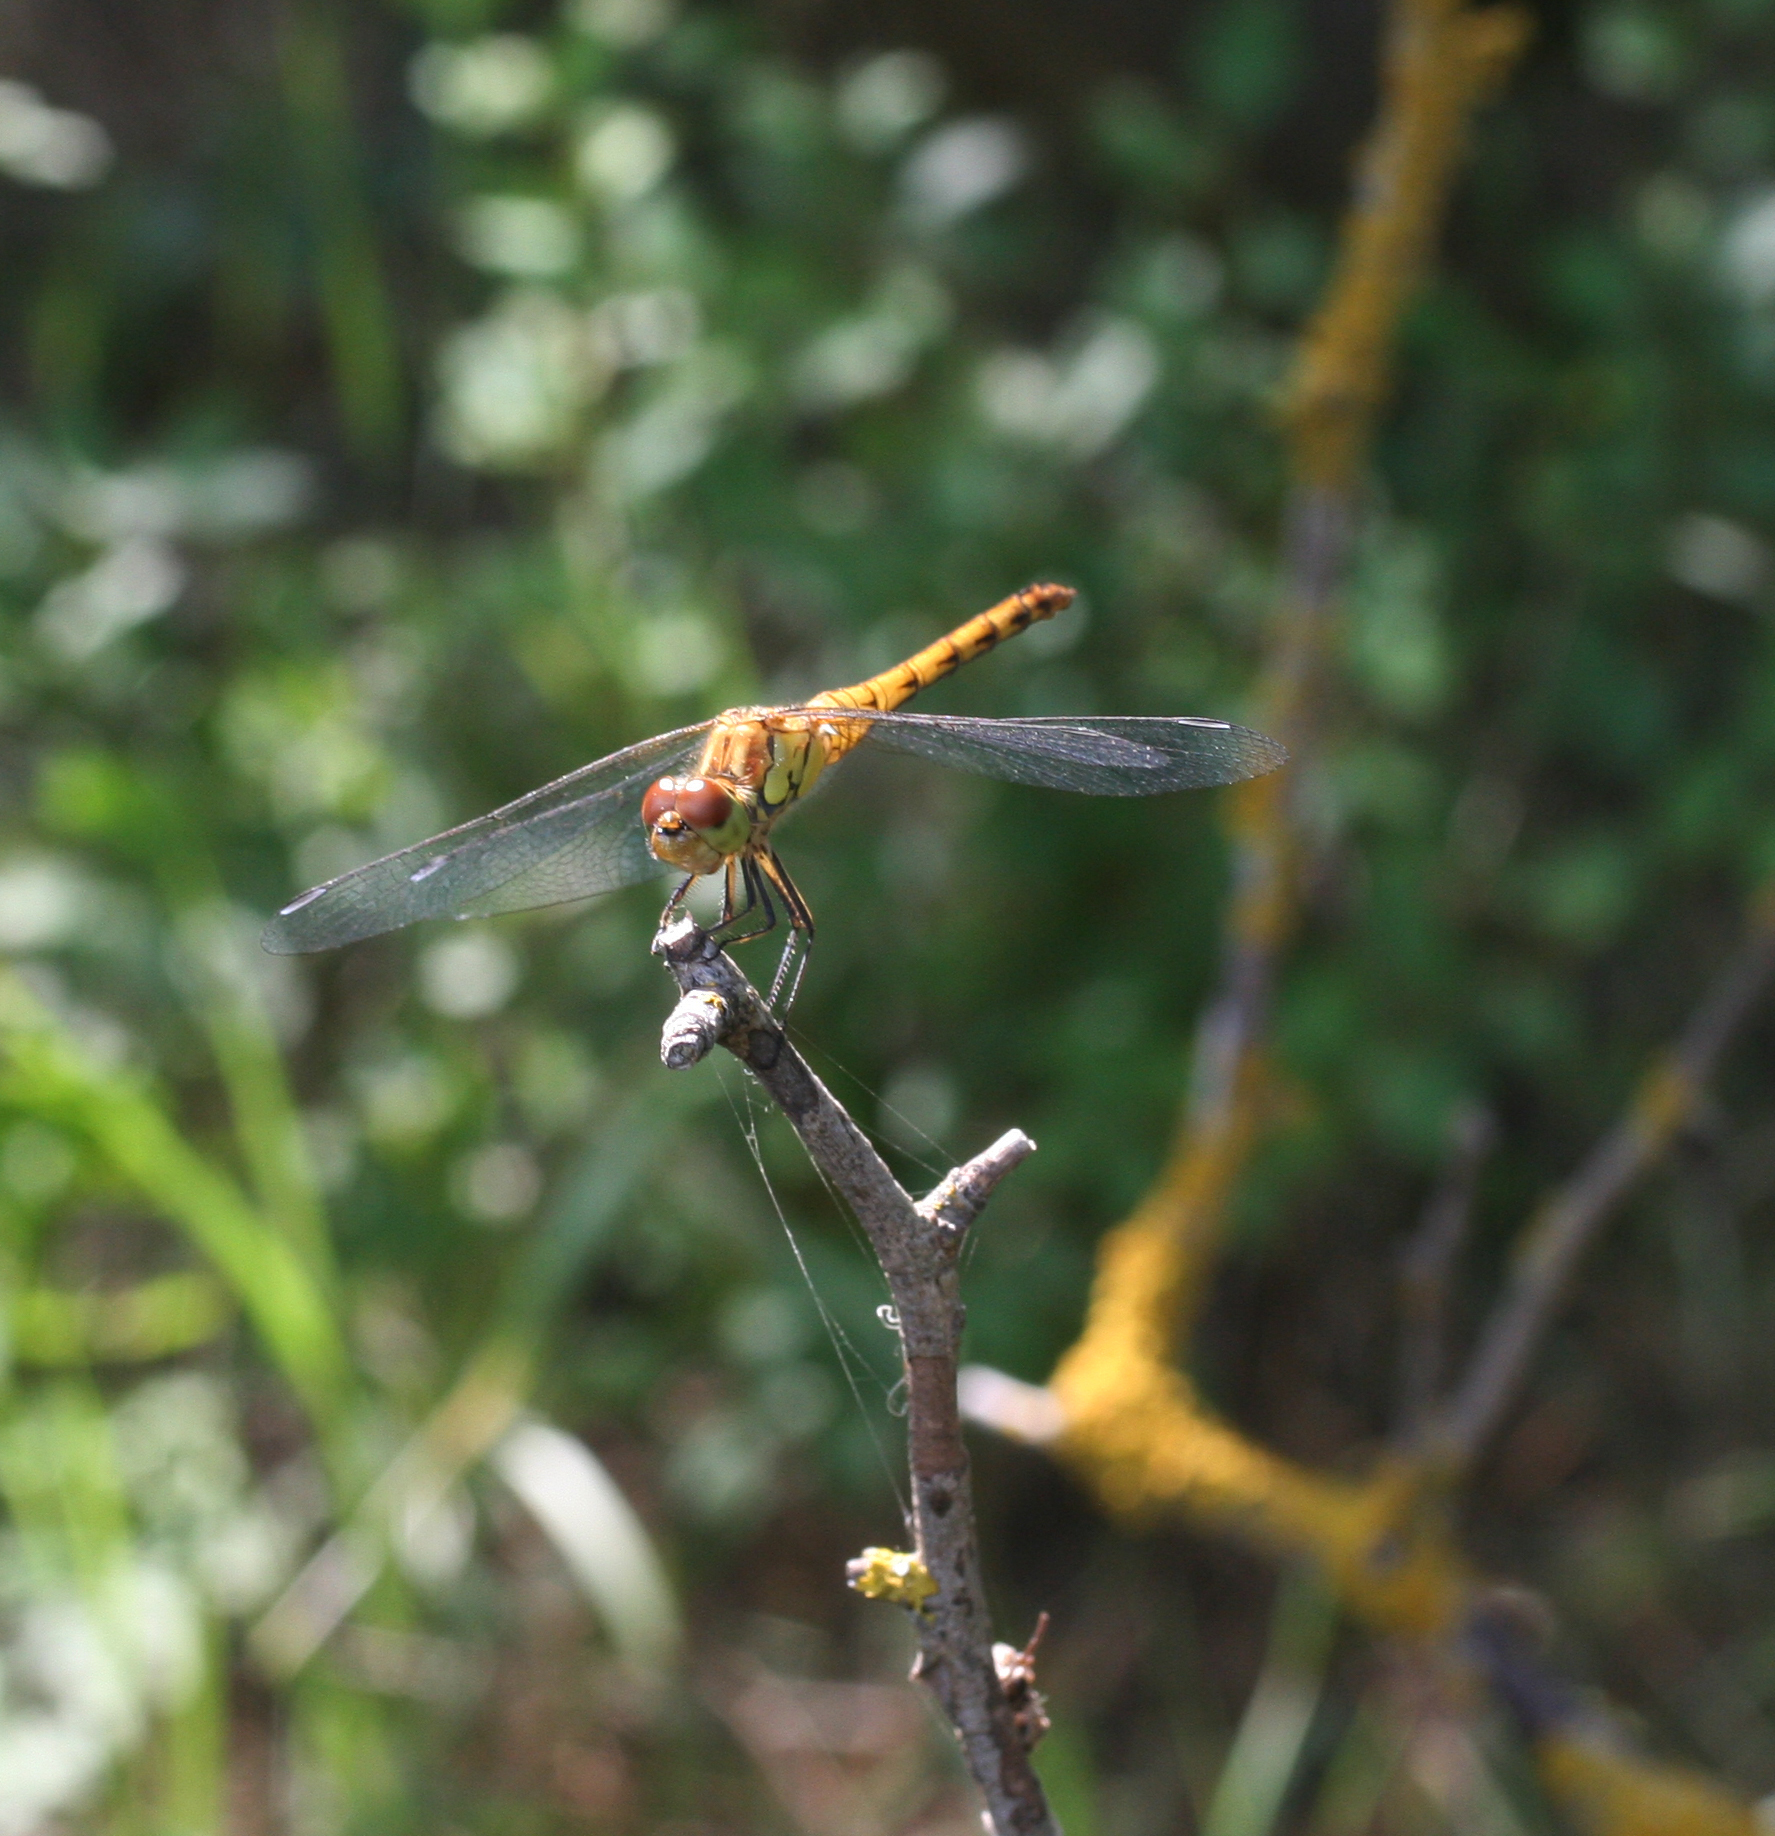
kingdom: Animalia
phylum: Arthropoda
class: Insecta
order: Odonata
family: Libellulidae
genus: Sympetrum
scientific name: Sympetrum striolatum
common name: Common darter
